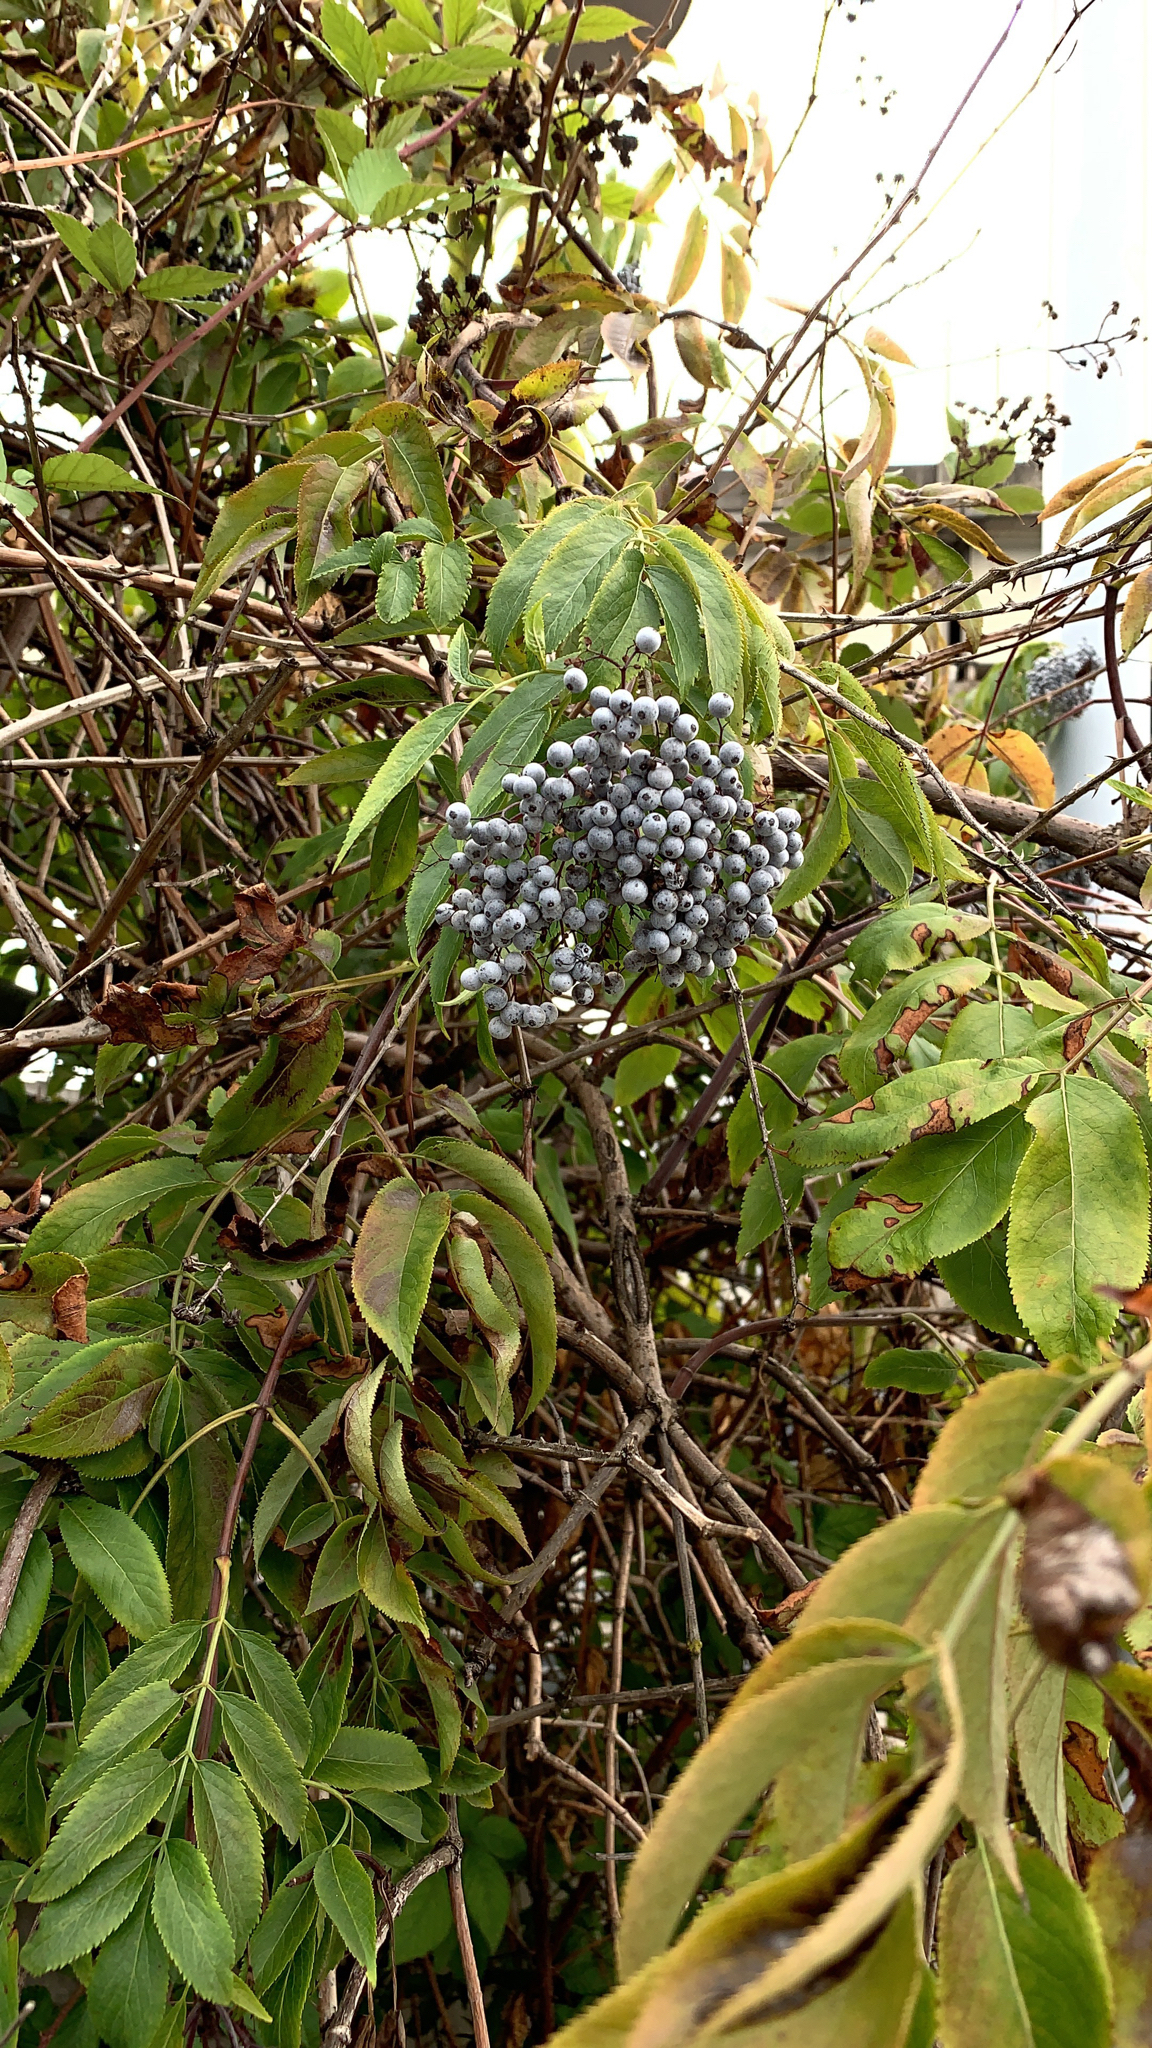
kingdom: Plantae
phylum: Tracheophyta
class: Magnoliopsida
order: Dipsacales
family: Viburnaceae
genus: Sambucus
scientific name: Sambucus cerulea
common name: Blue elder
